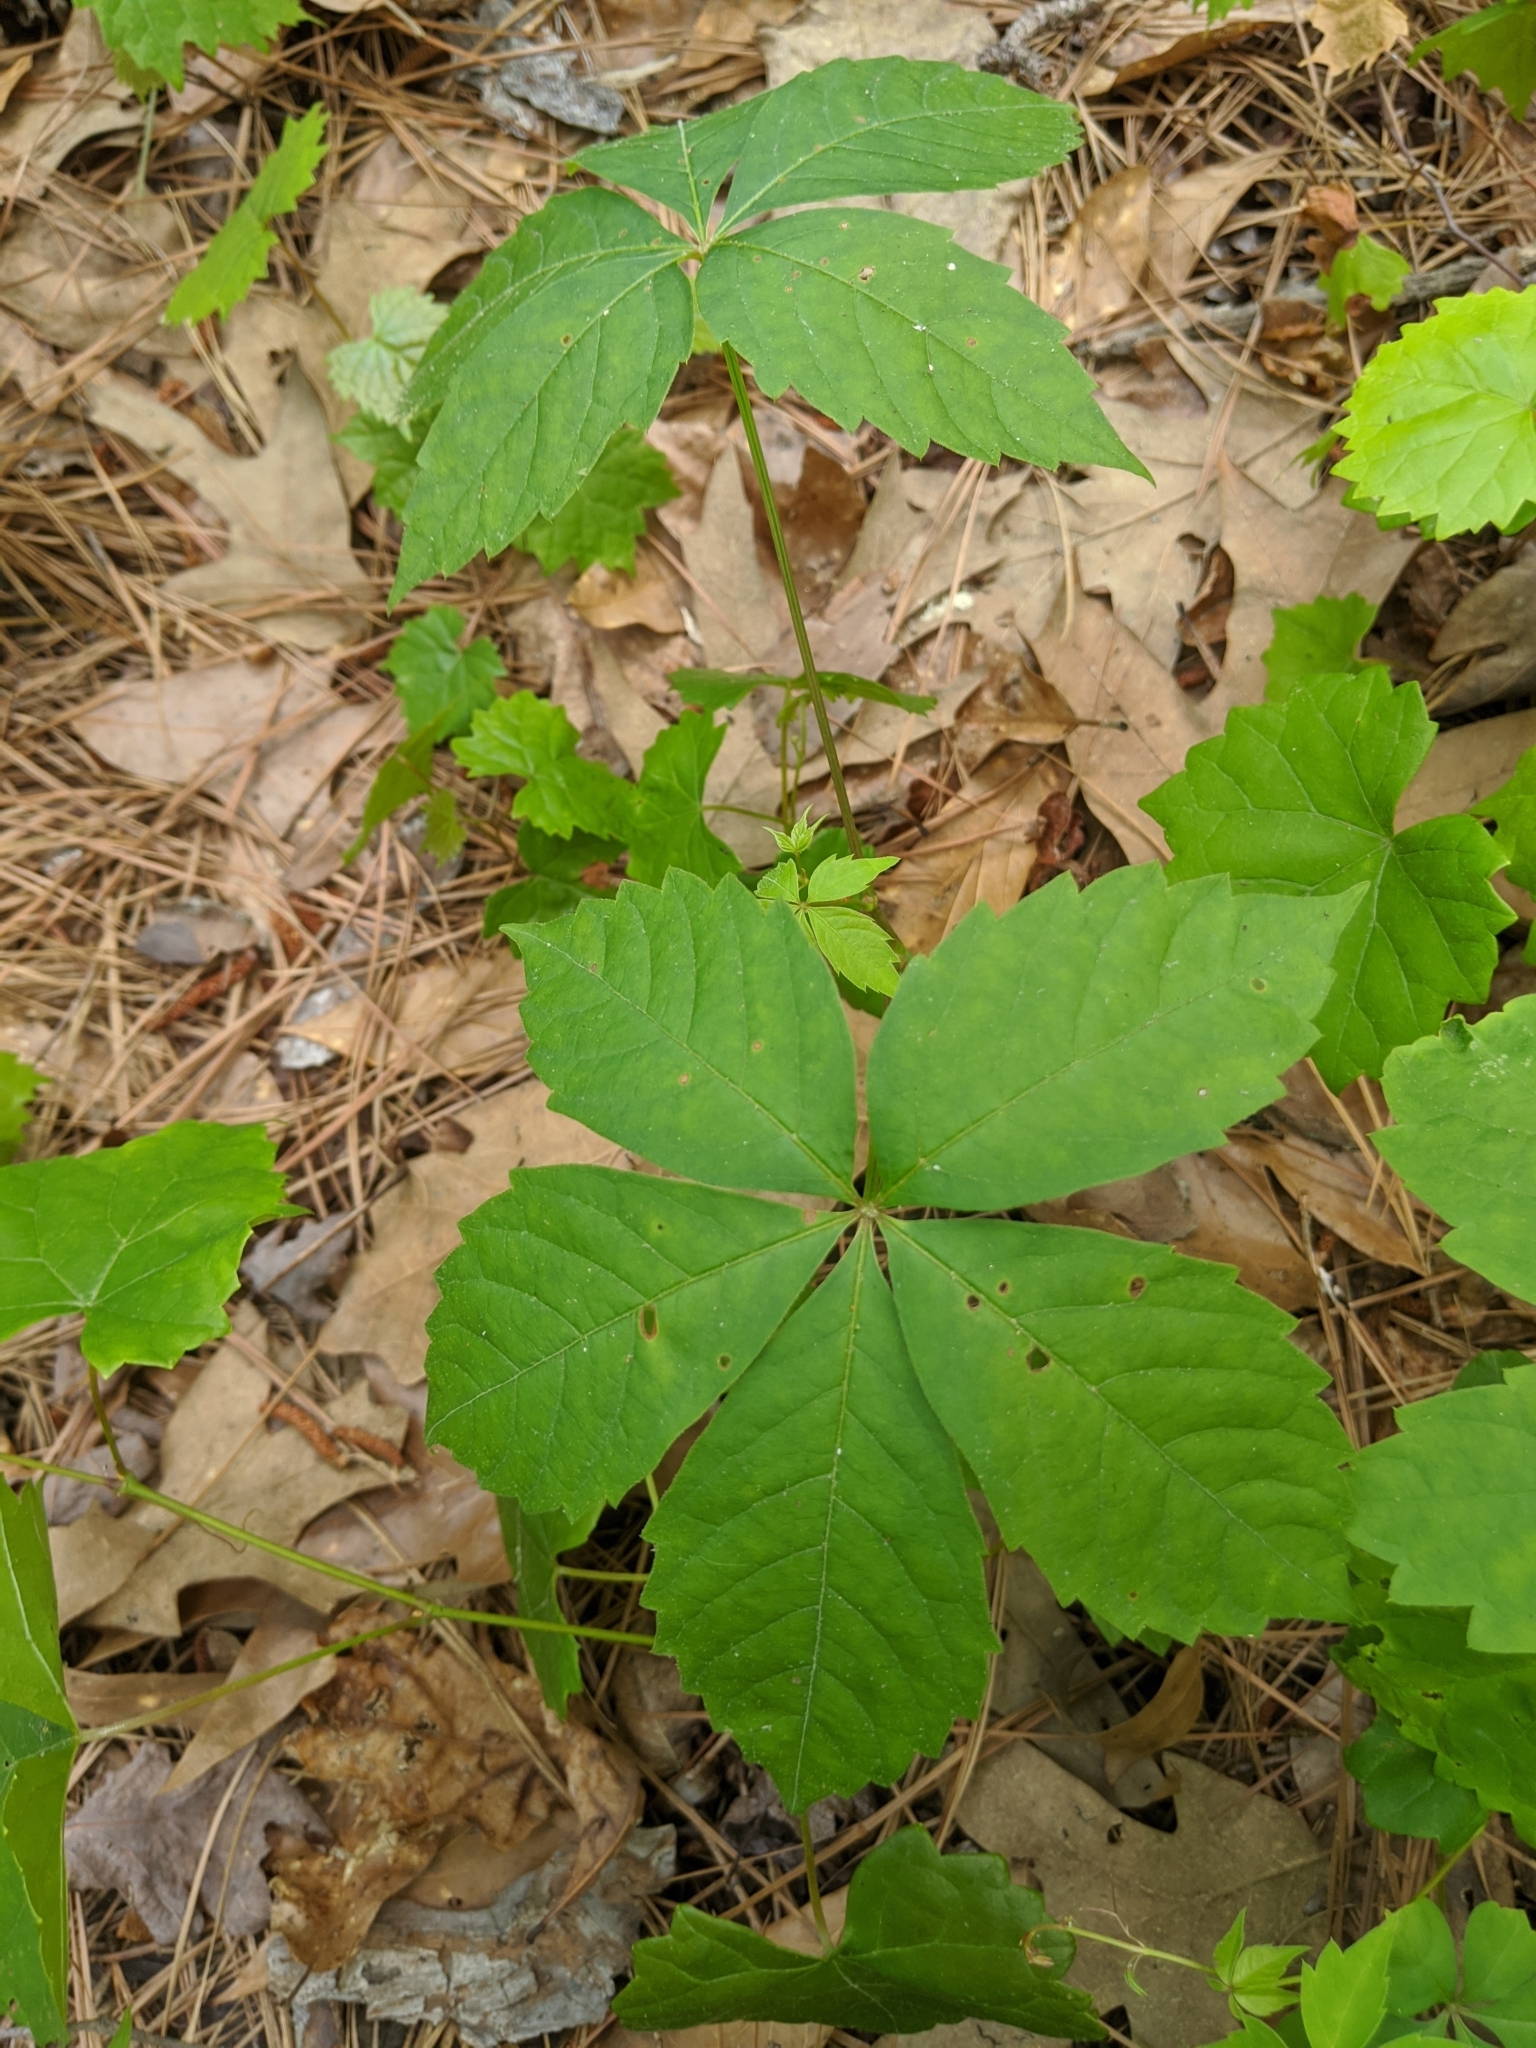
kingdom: Plantae
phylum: Tracheophyta
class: Magnoliopsida
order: Vitales
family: Vitaceae
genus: Parthenocissus
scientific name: Parthenocissus quinquefolia
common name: Virginia-creeper
